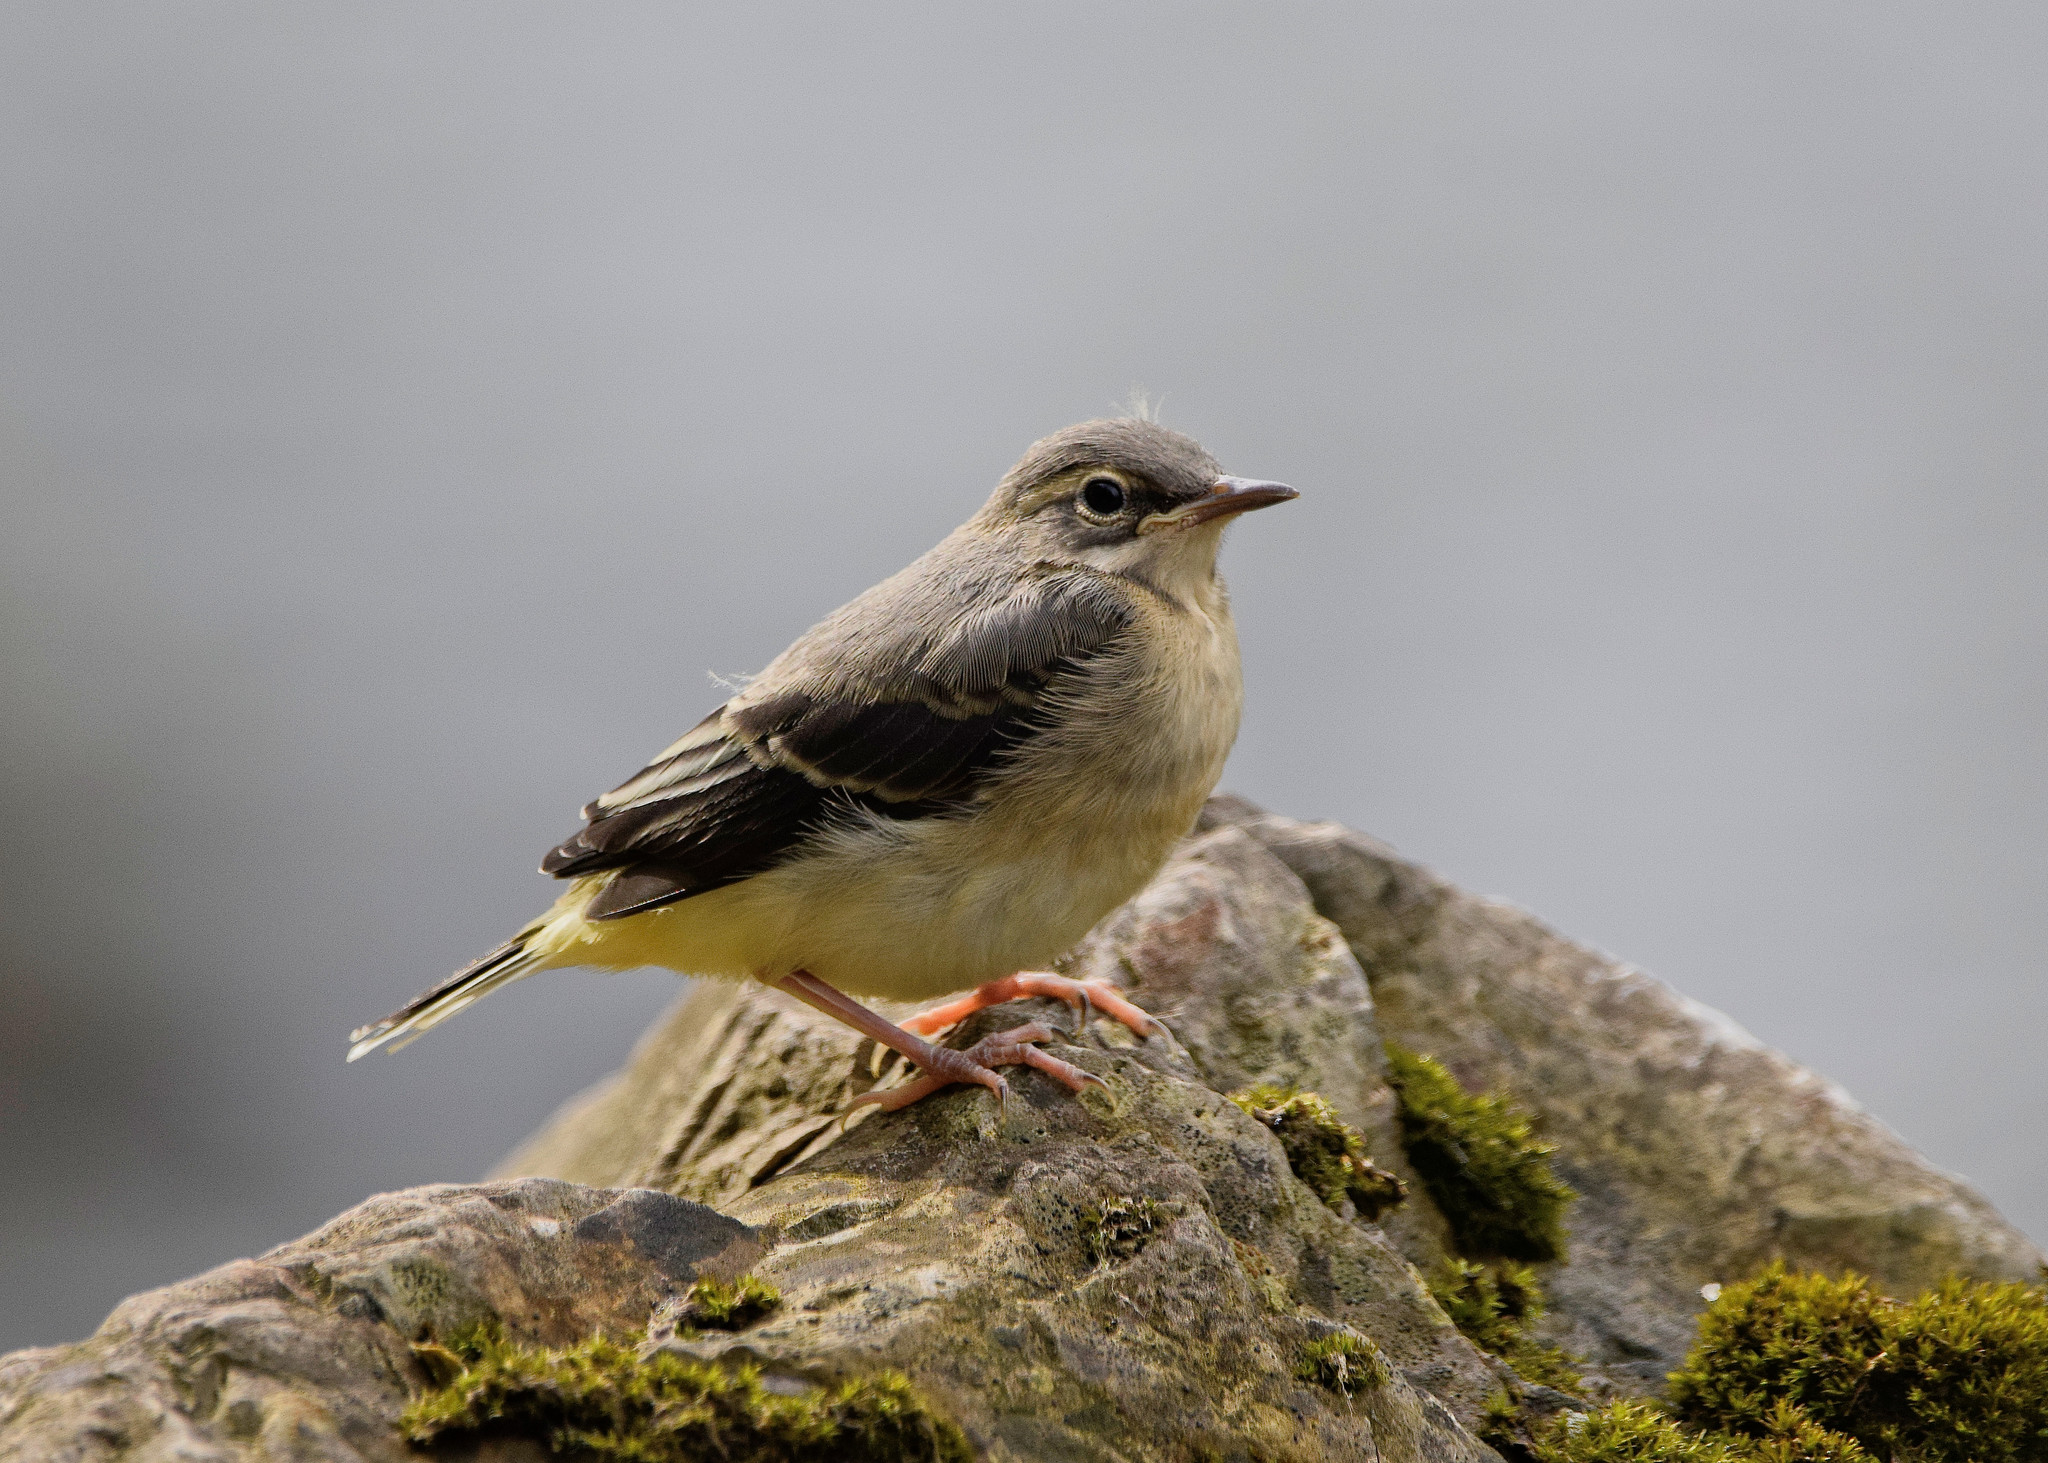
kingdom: Animalia
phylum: Chordata
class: Aves
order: Passeriformes
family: Motacillidae
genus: Motacilla
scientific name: Motacilla cinerea
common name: Grey wagtail
